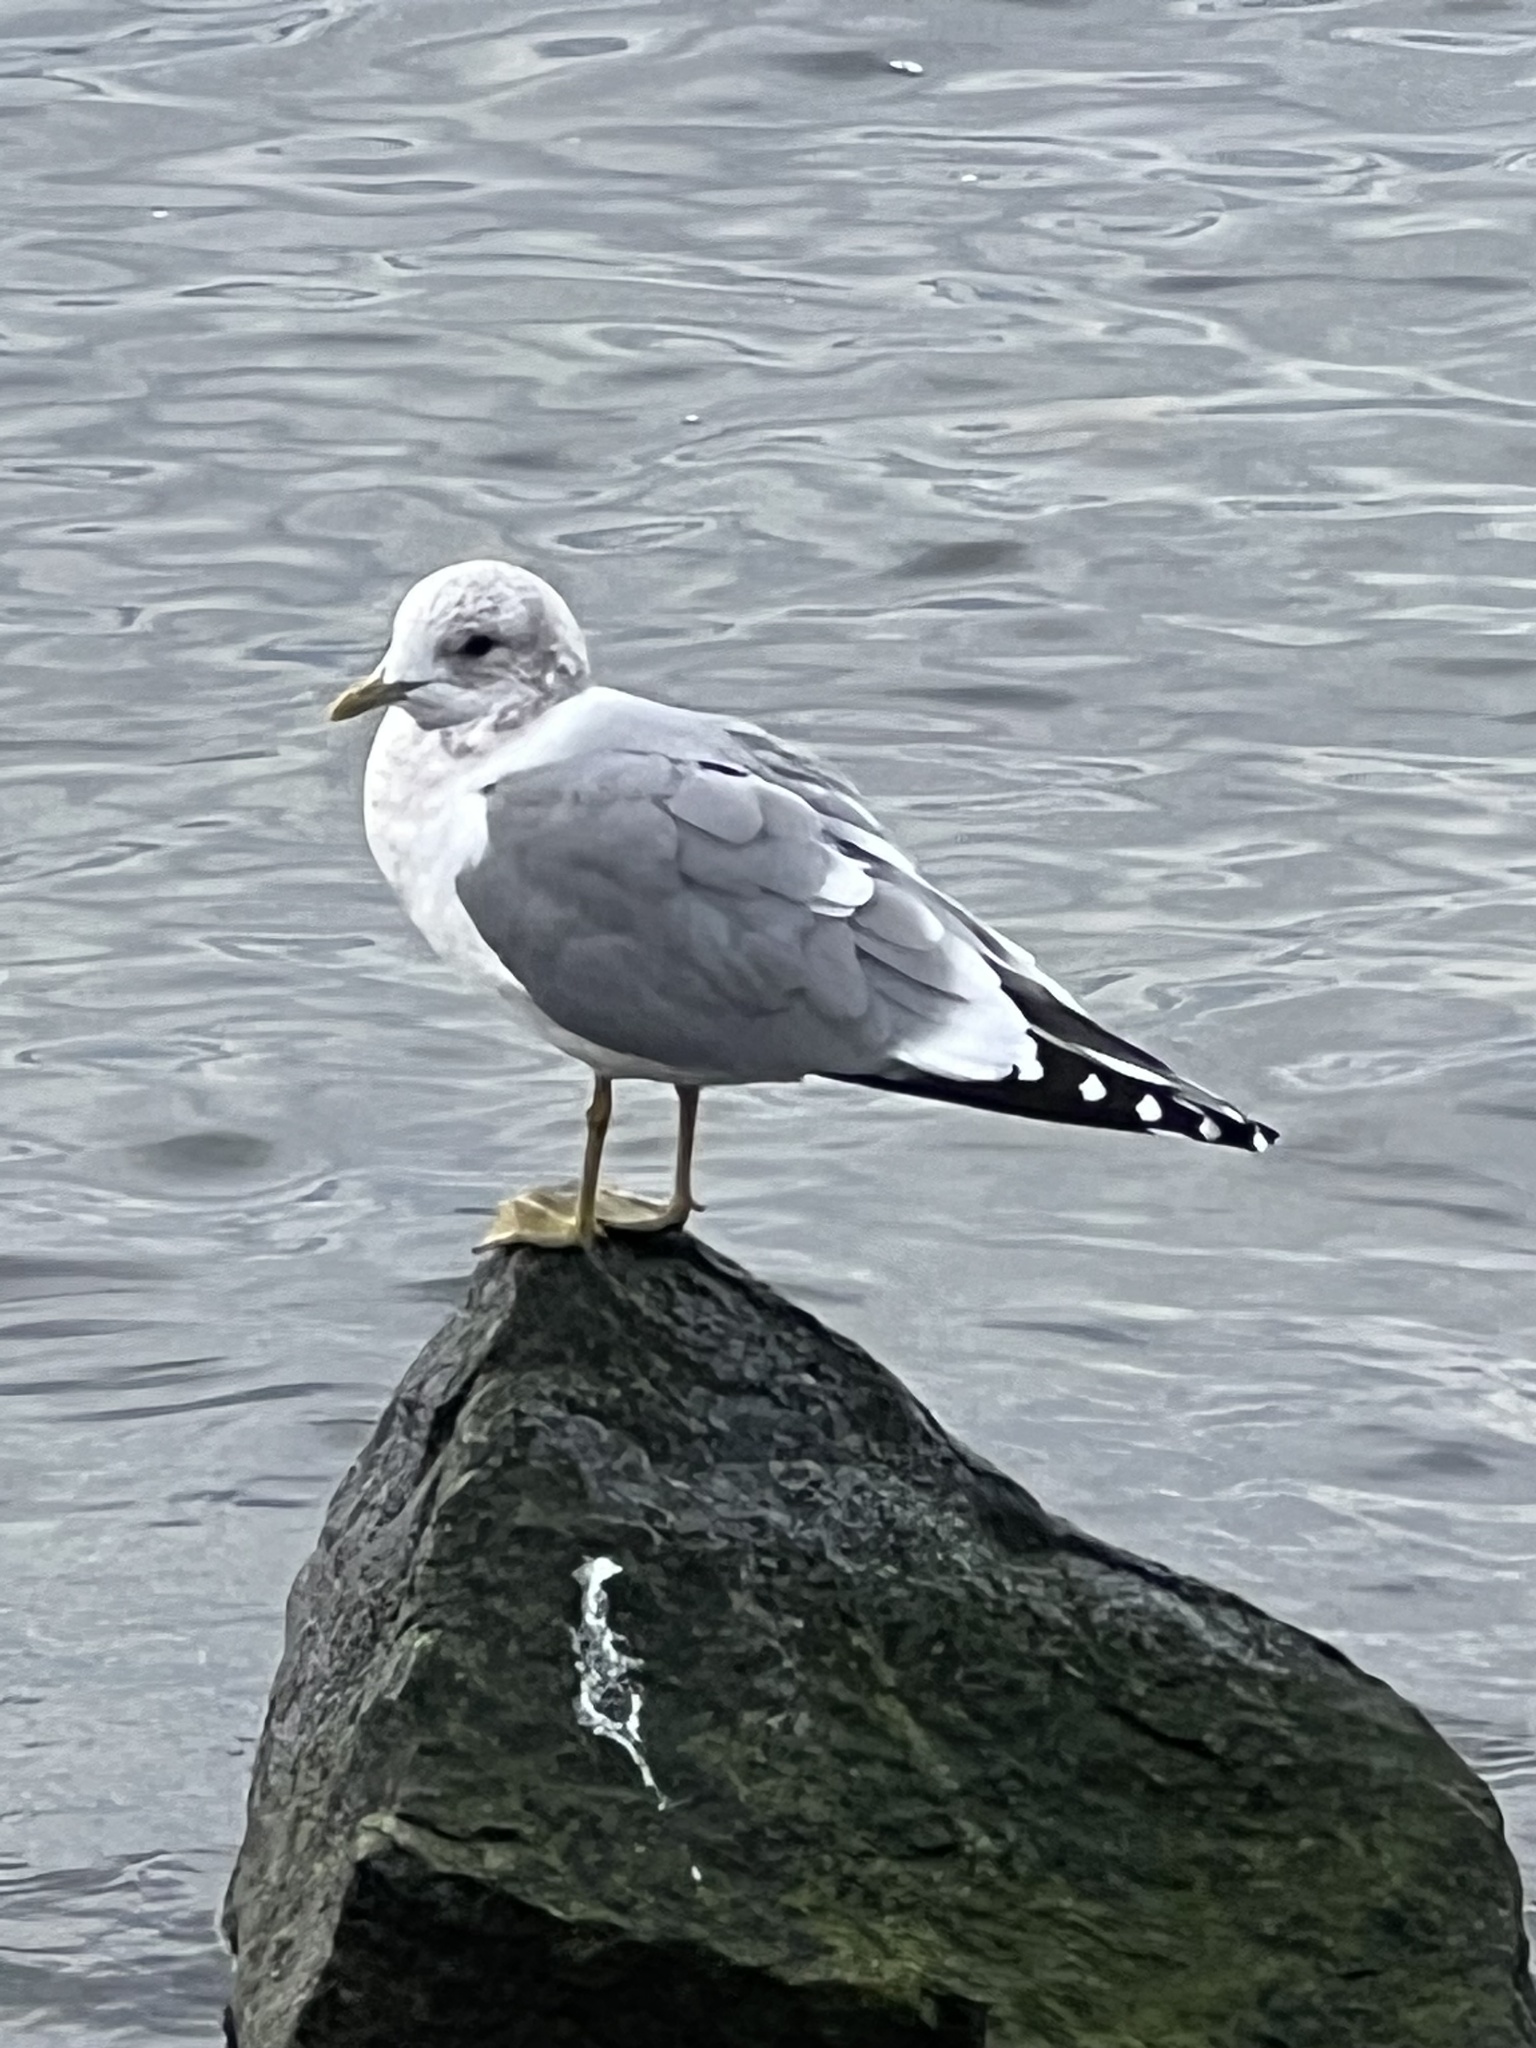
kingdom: Animalia
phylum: Chordata
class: Aves
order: Charadriiformes
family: Laridae
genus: Larus
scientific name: Larus brachyrhynchus
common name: Short-billed gull
